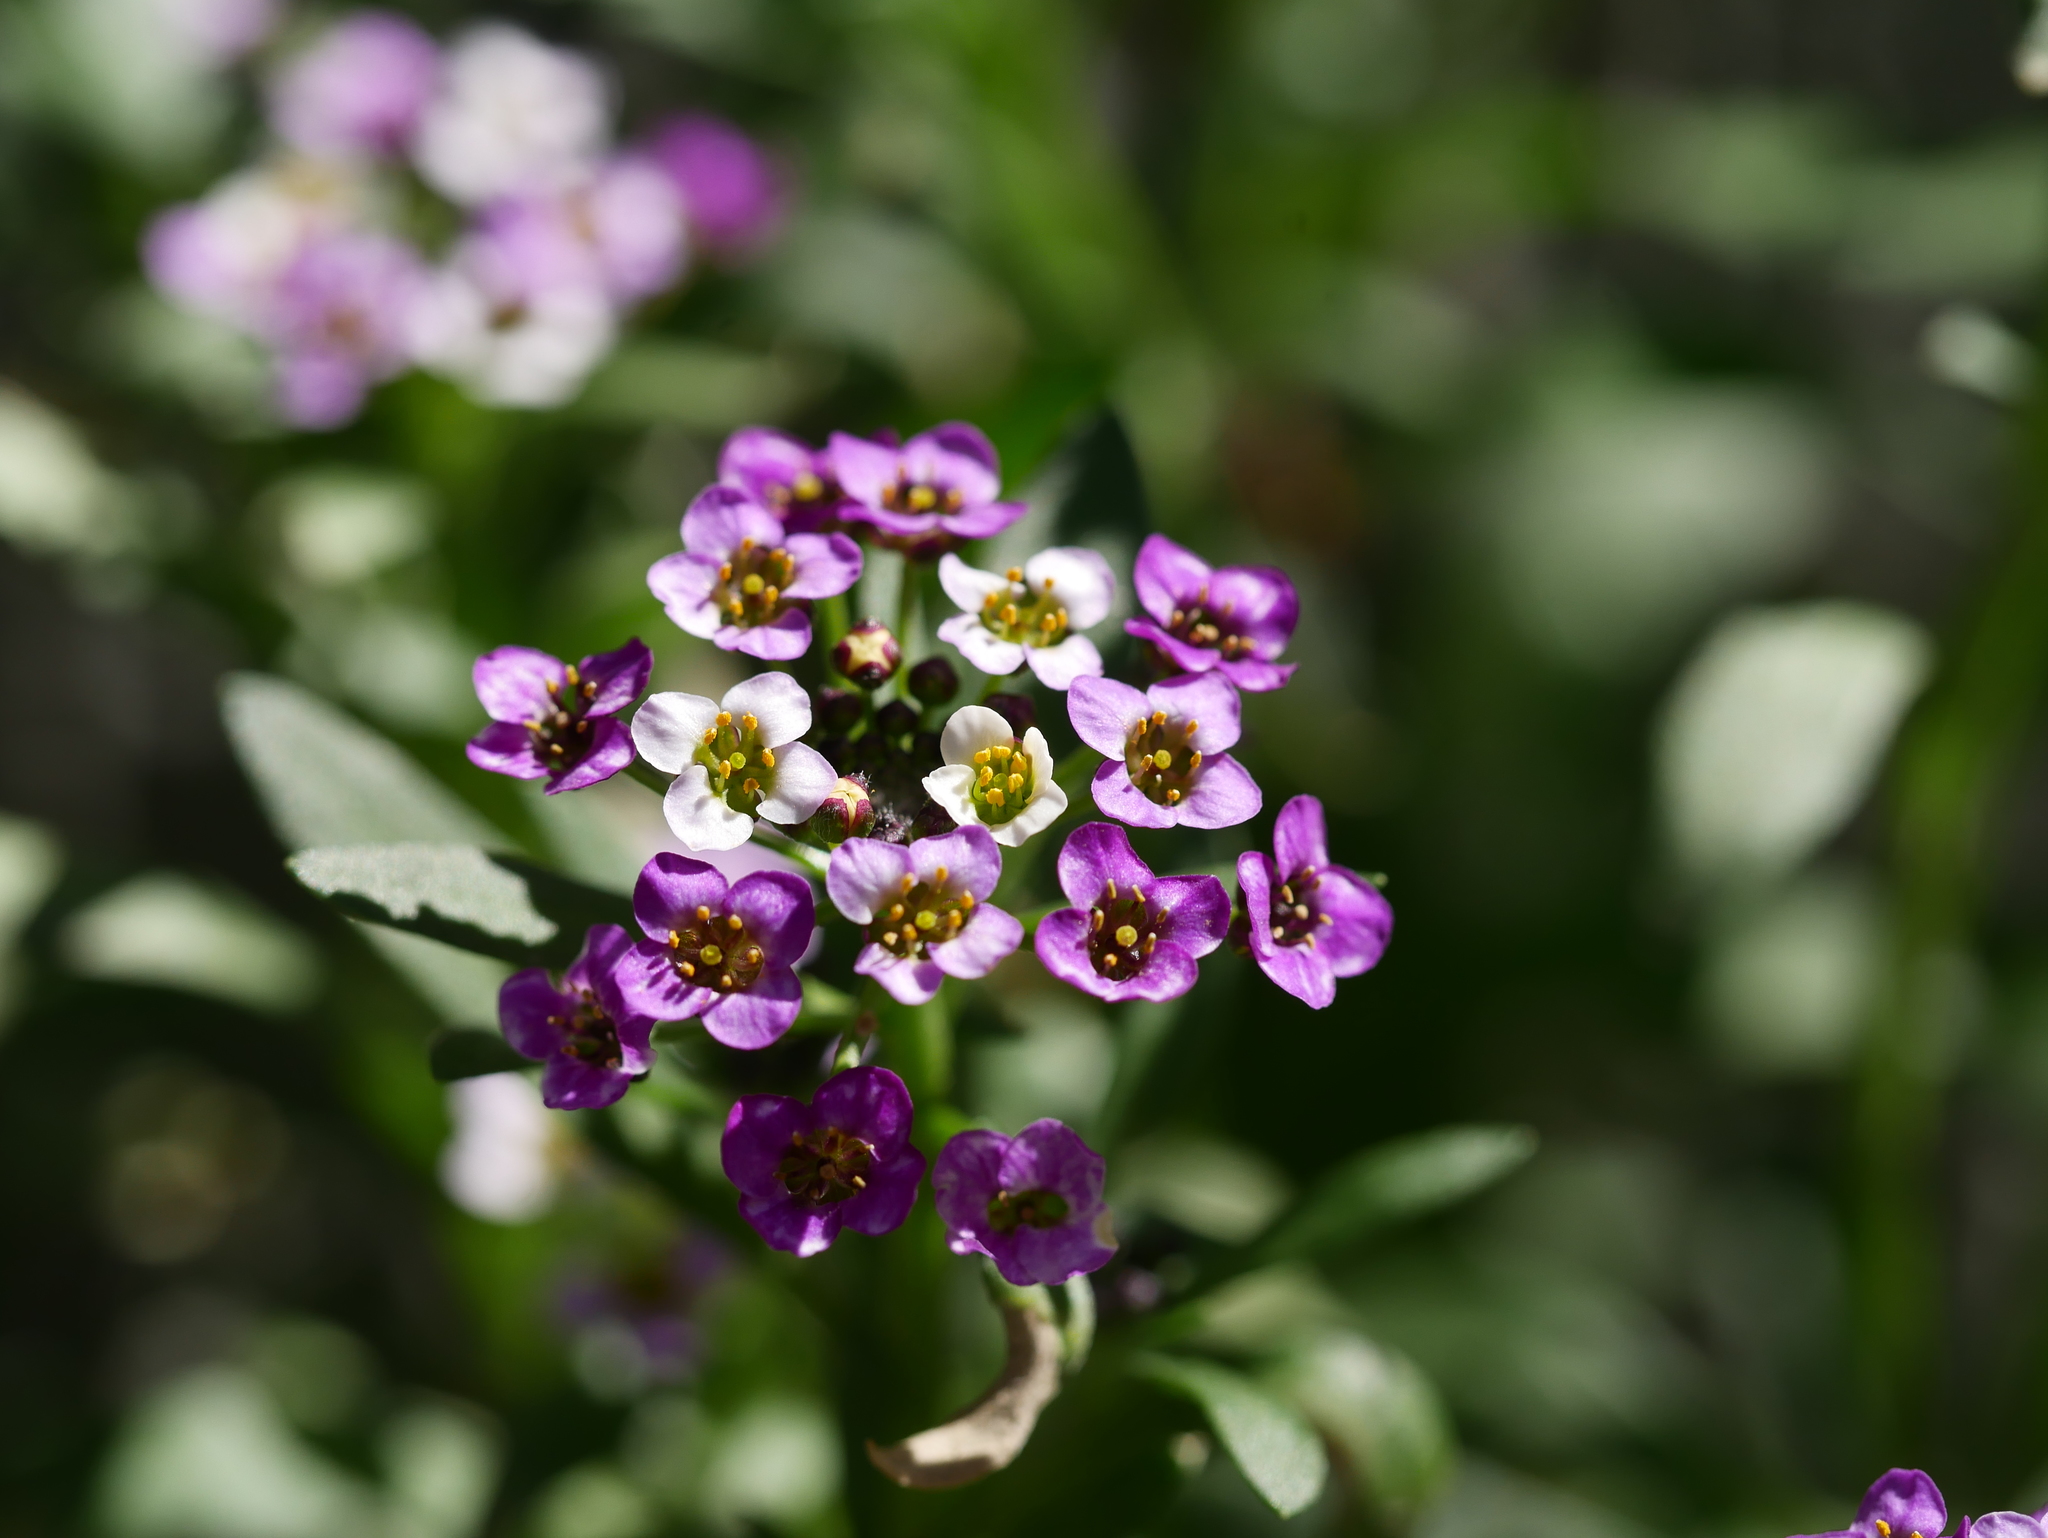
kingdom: Plantae
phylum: Tracheophyta
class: Magnoliopsida
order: Brassicales
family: Brassicaceae
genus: Lobularia
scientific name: Lobularia maritima
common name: Sweet alison
